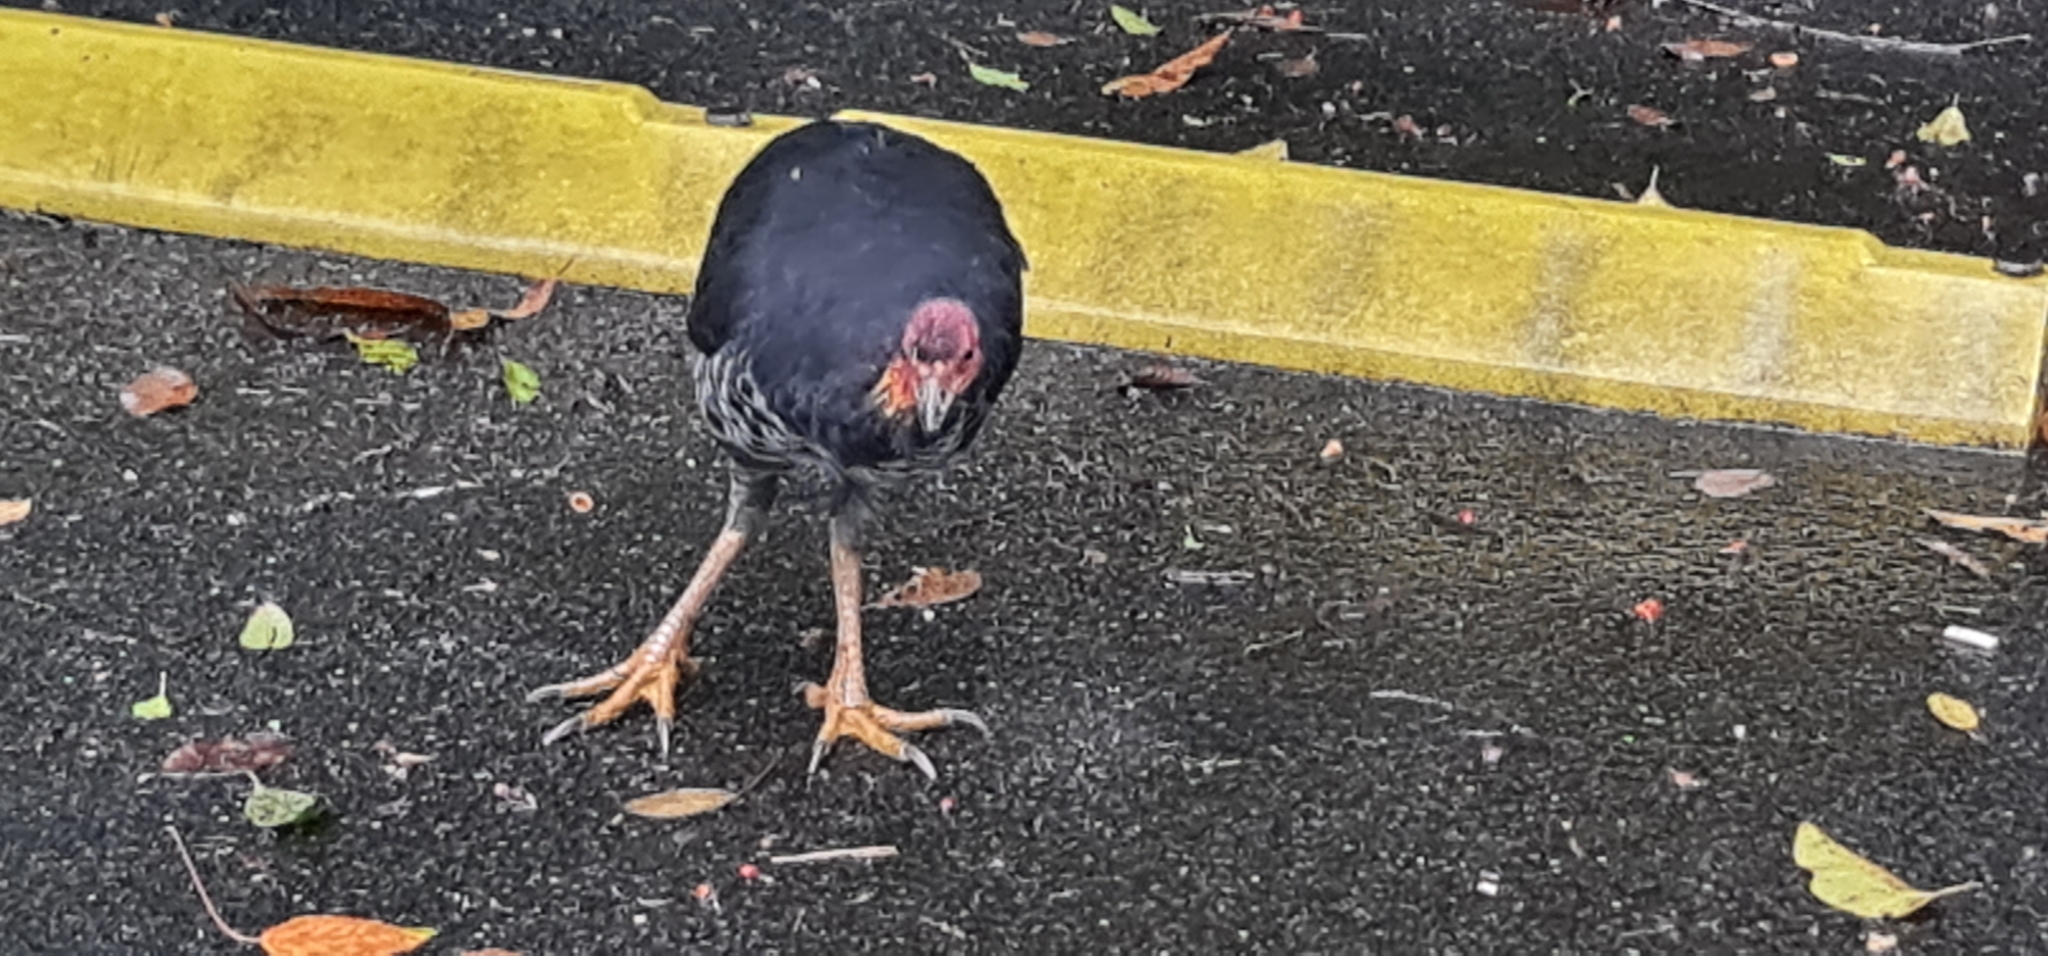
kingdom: Animalia
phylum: Chordata
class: Aves
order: Galliformes
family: Megapodiidae
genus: Alectura
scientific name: Alectura lathami
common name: Australian brushturkey
